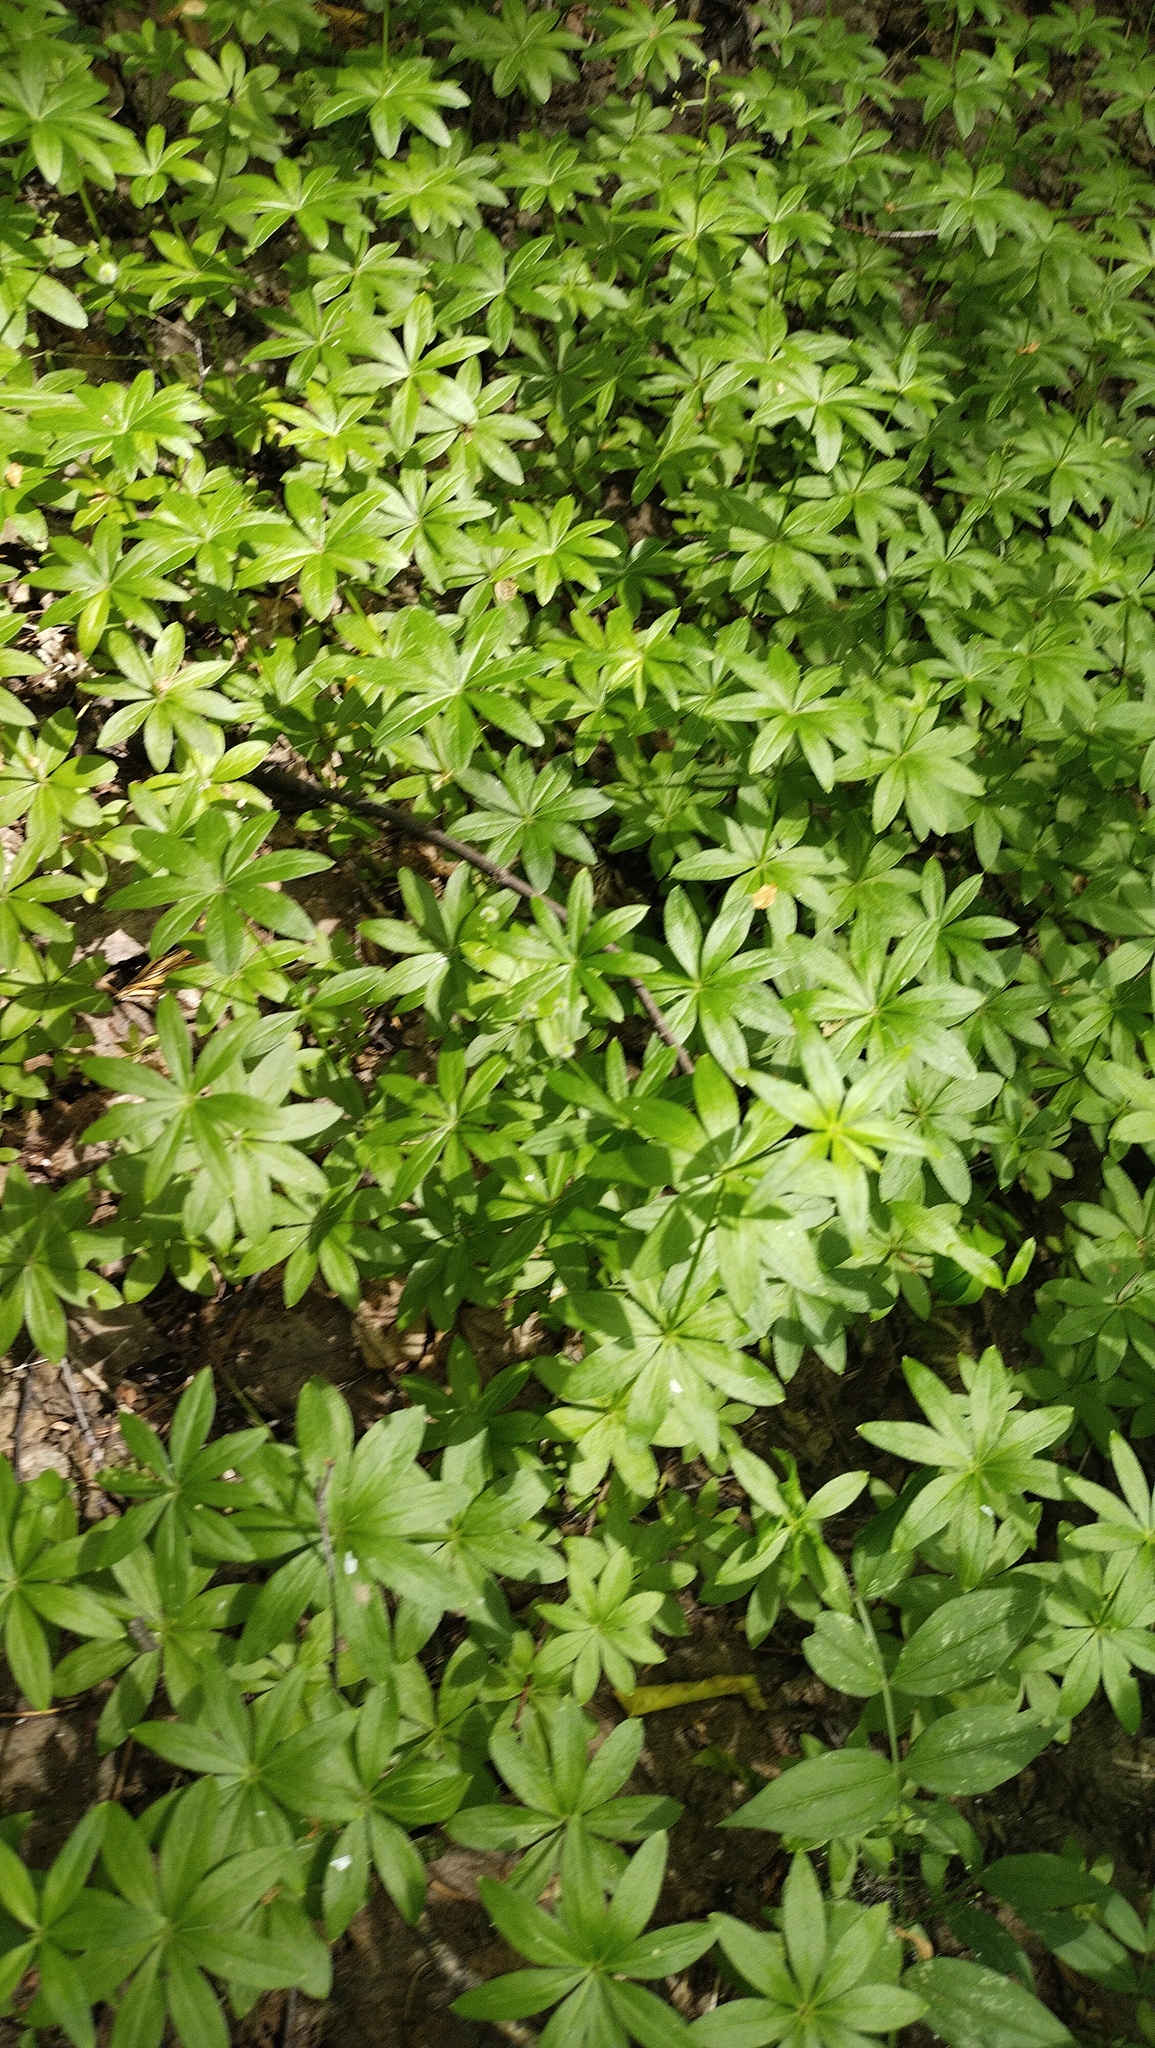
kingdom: Plantae
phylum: Tracheophyta
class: Magnoliopsida
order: Gentianales
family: Rubiaceae
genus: Galium
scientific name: Galium odoratum
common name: Sweet woodruff
